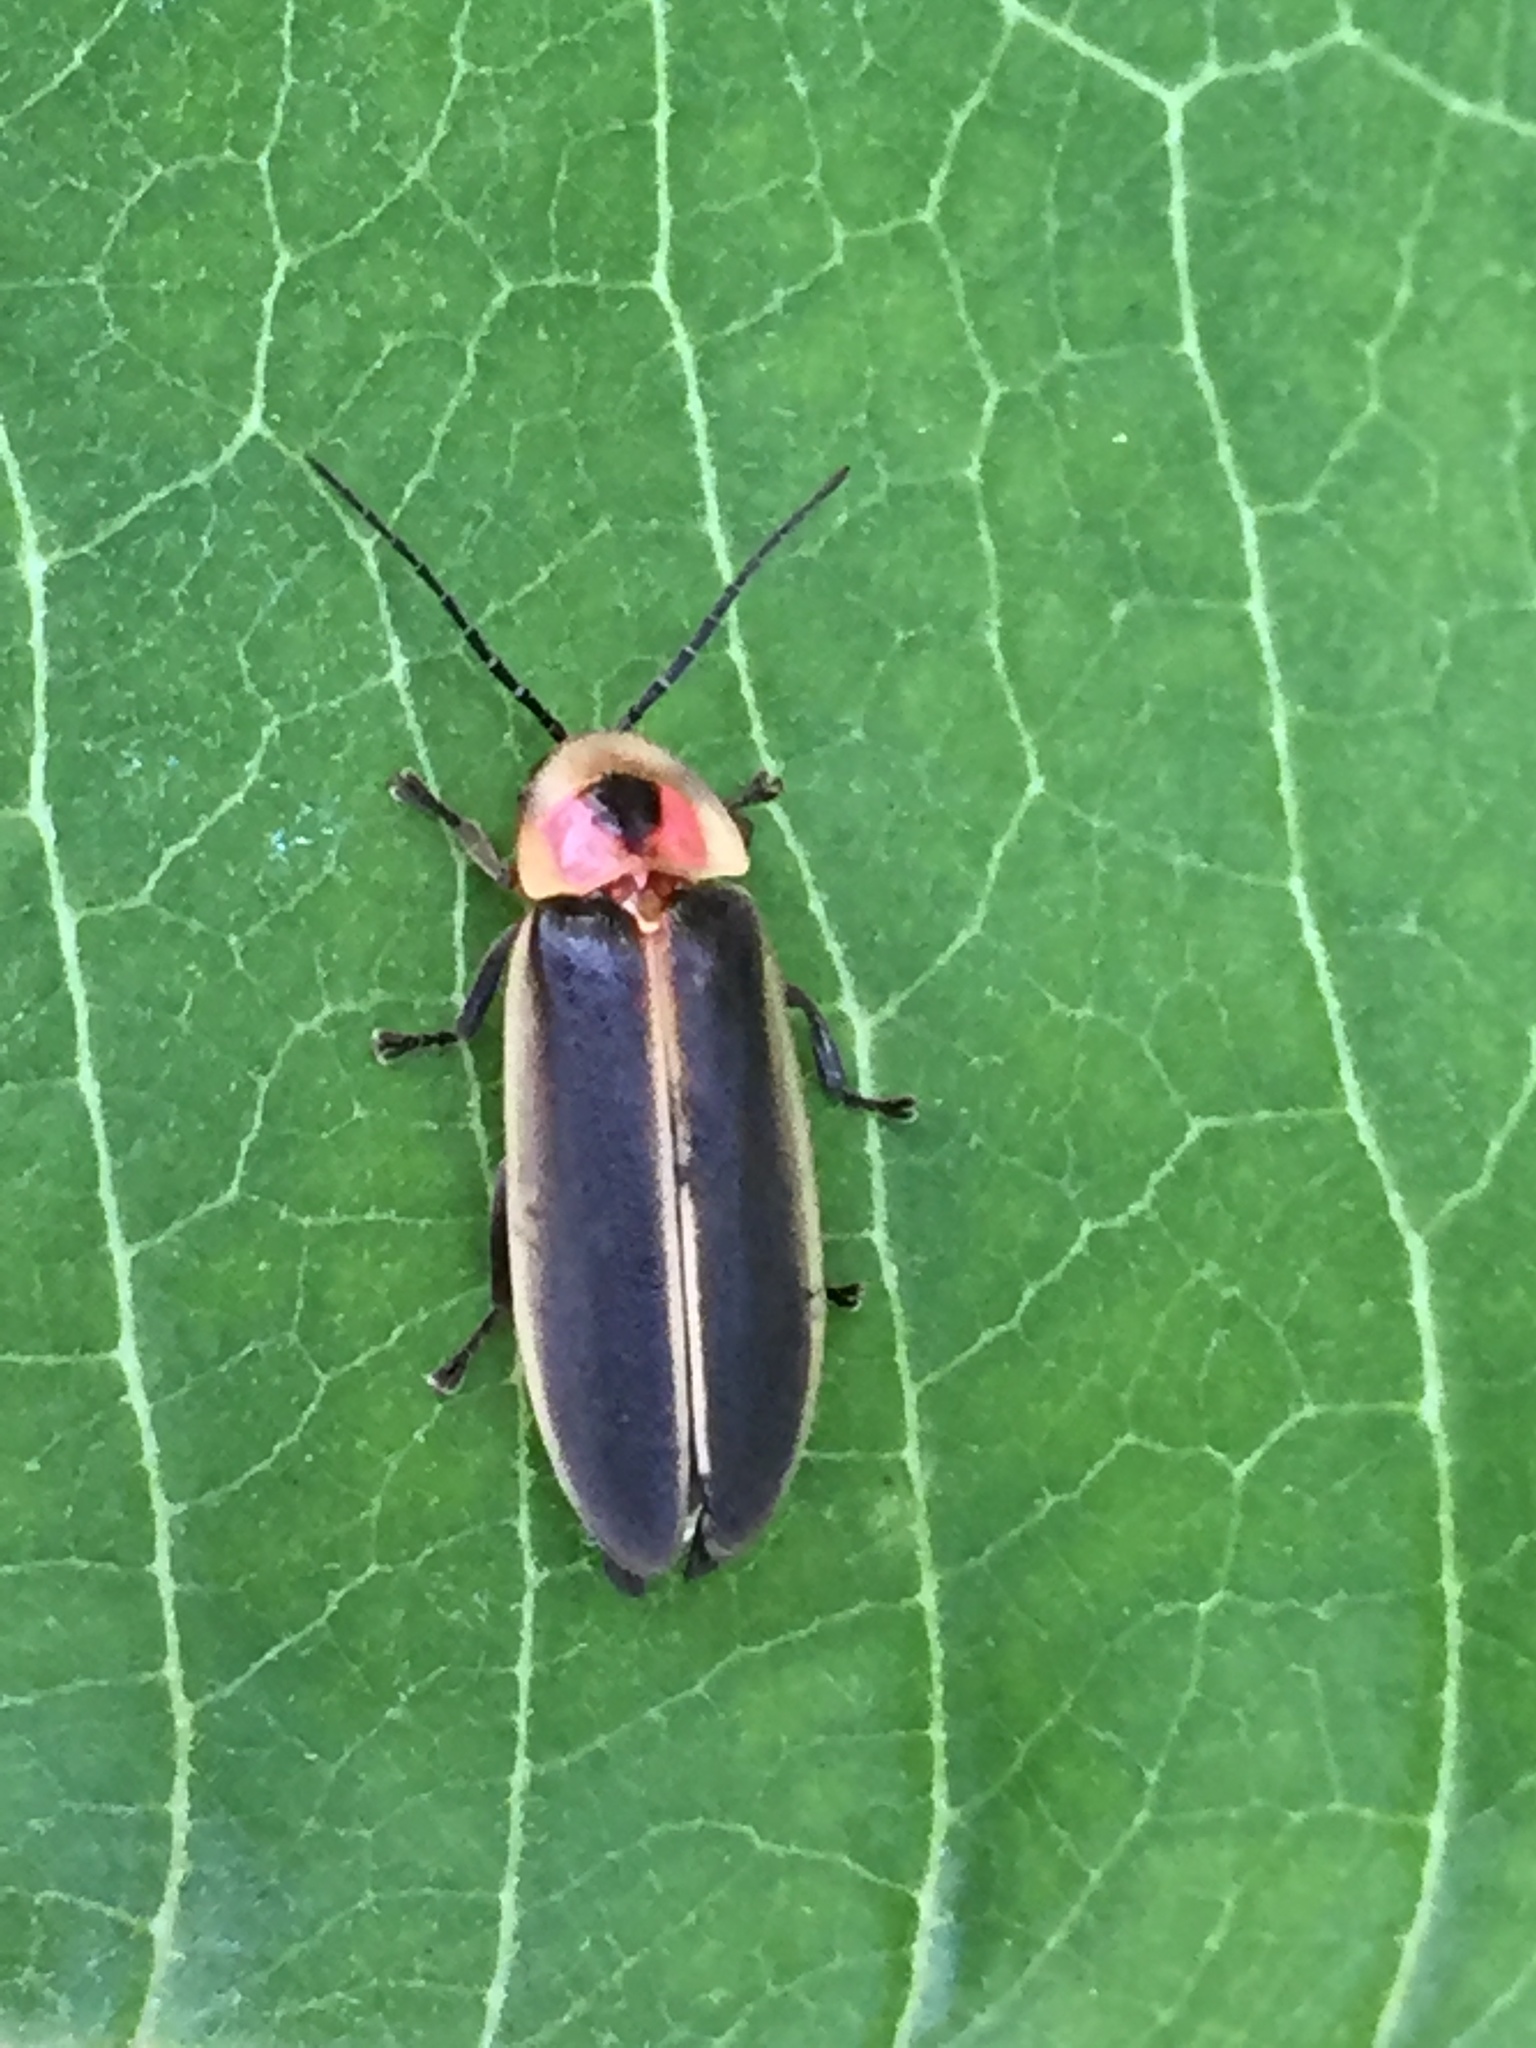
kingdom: Animalia
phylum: Arthropoda
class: Insecta
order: Coleoptera
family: Lampyridae
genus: Photinus
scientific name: Photinus pyralis
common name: Big dipper firefly
